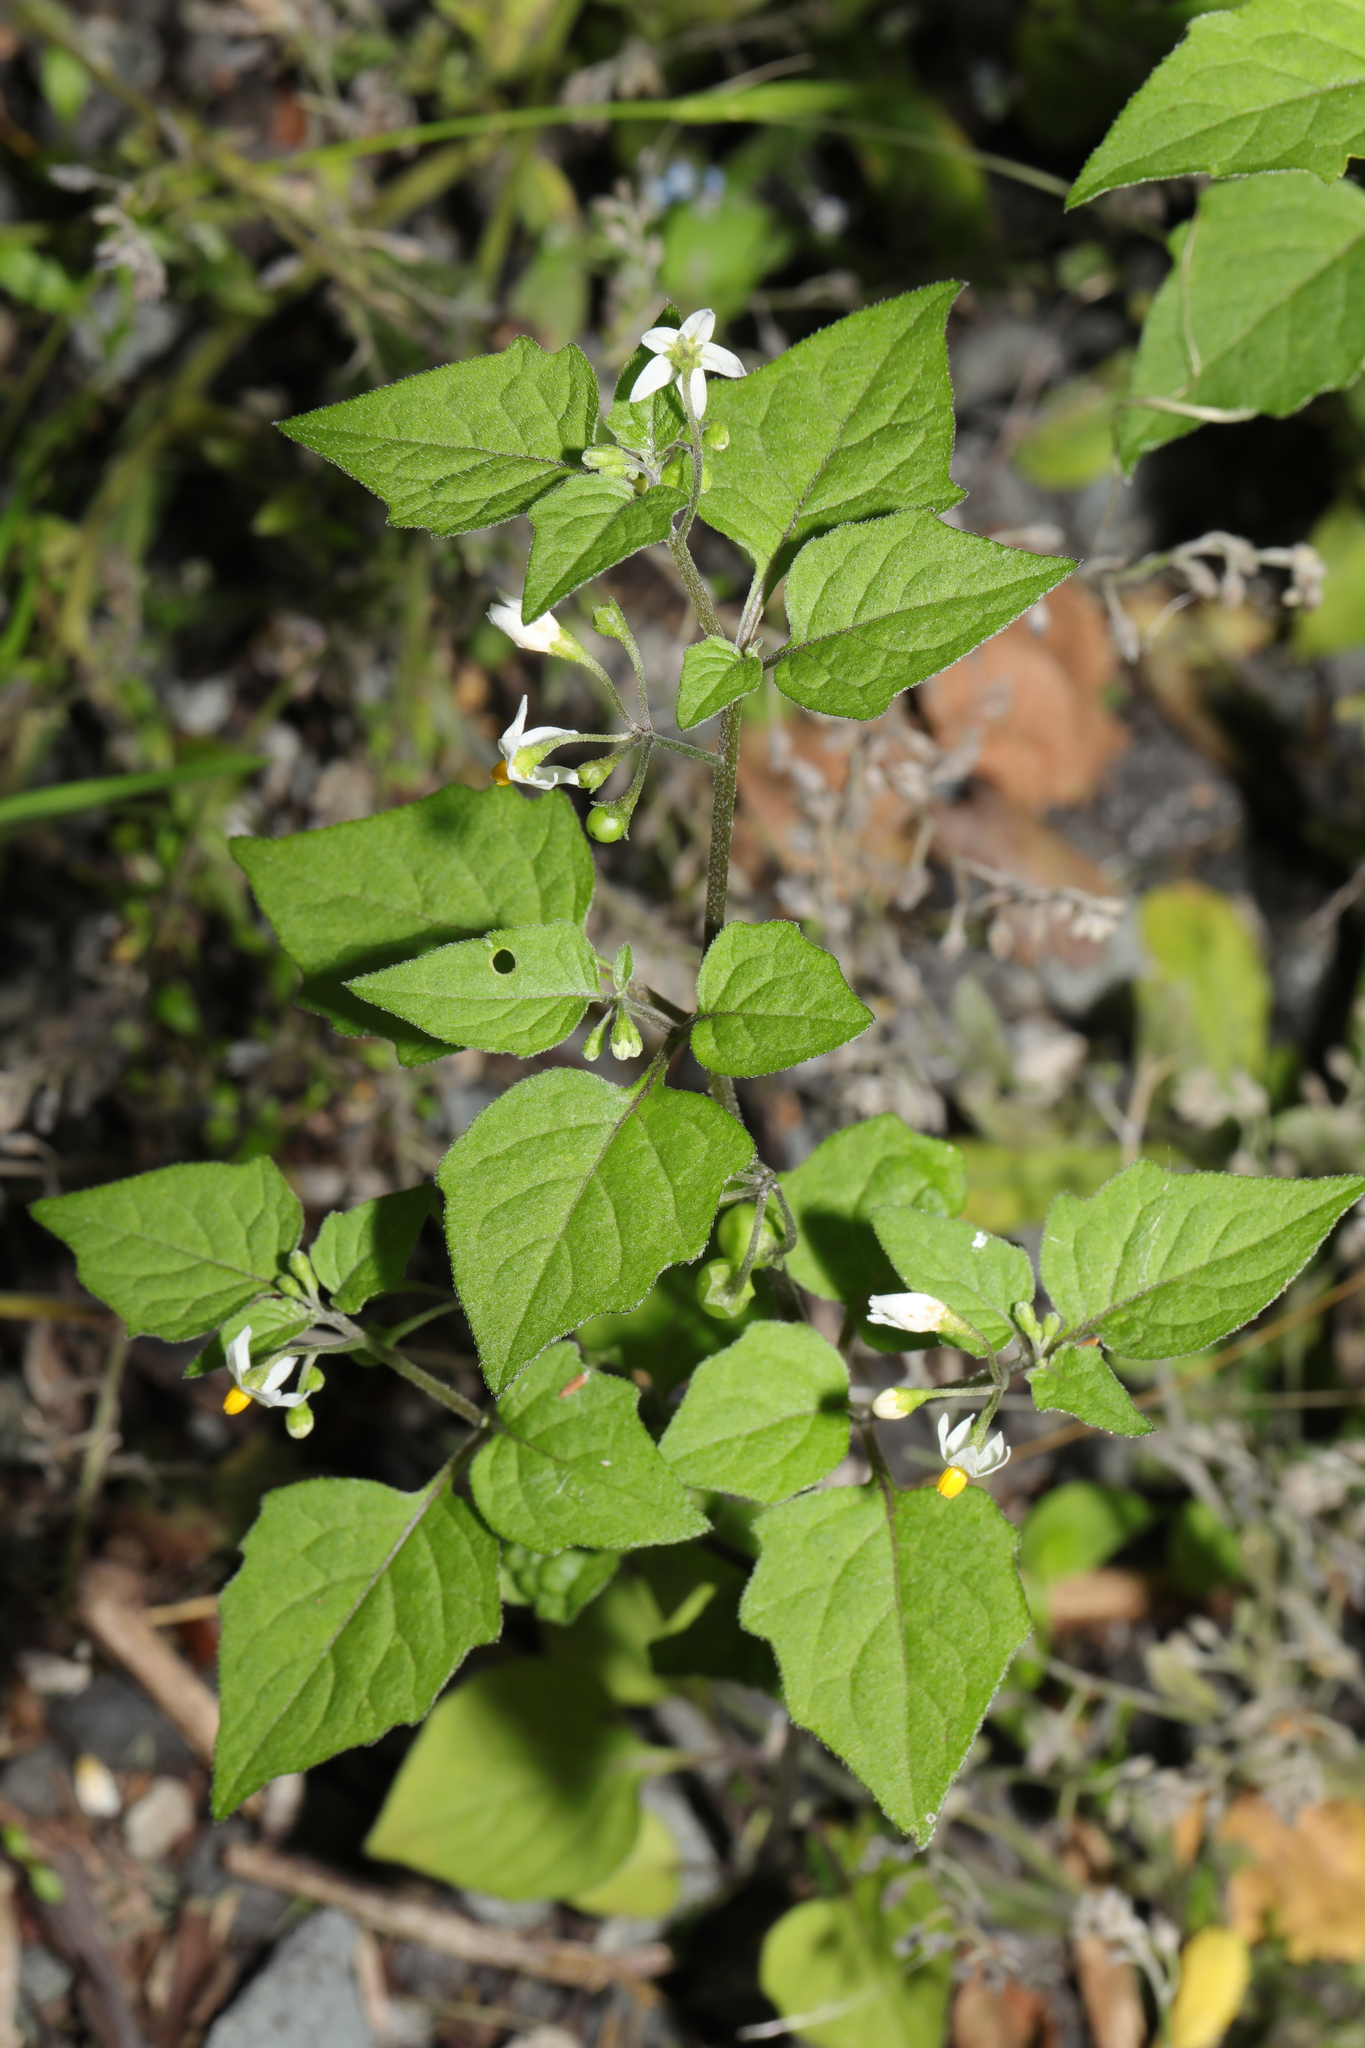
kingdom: Plantae
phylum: Tracheophyta
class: Magnoliopsida
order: Solanales
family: Solanaceae
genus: Solanum
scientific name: Solanum nigrum
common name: Black nightshade
